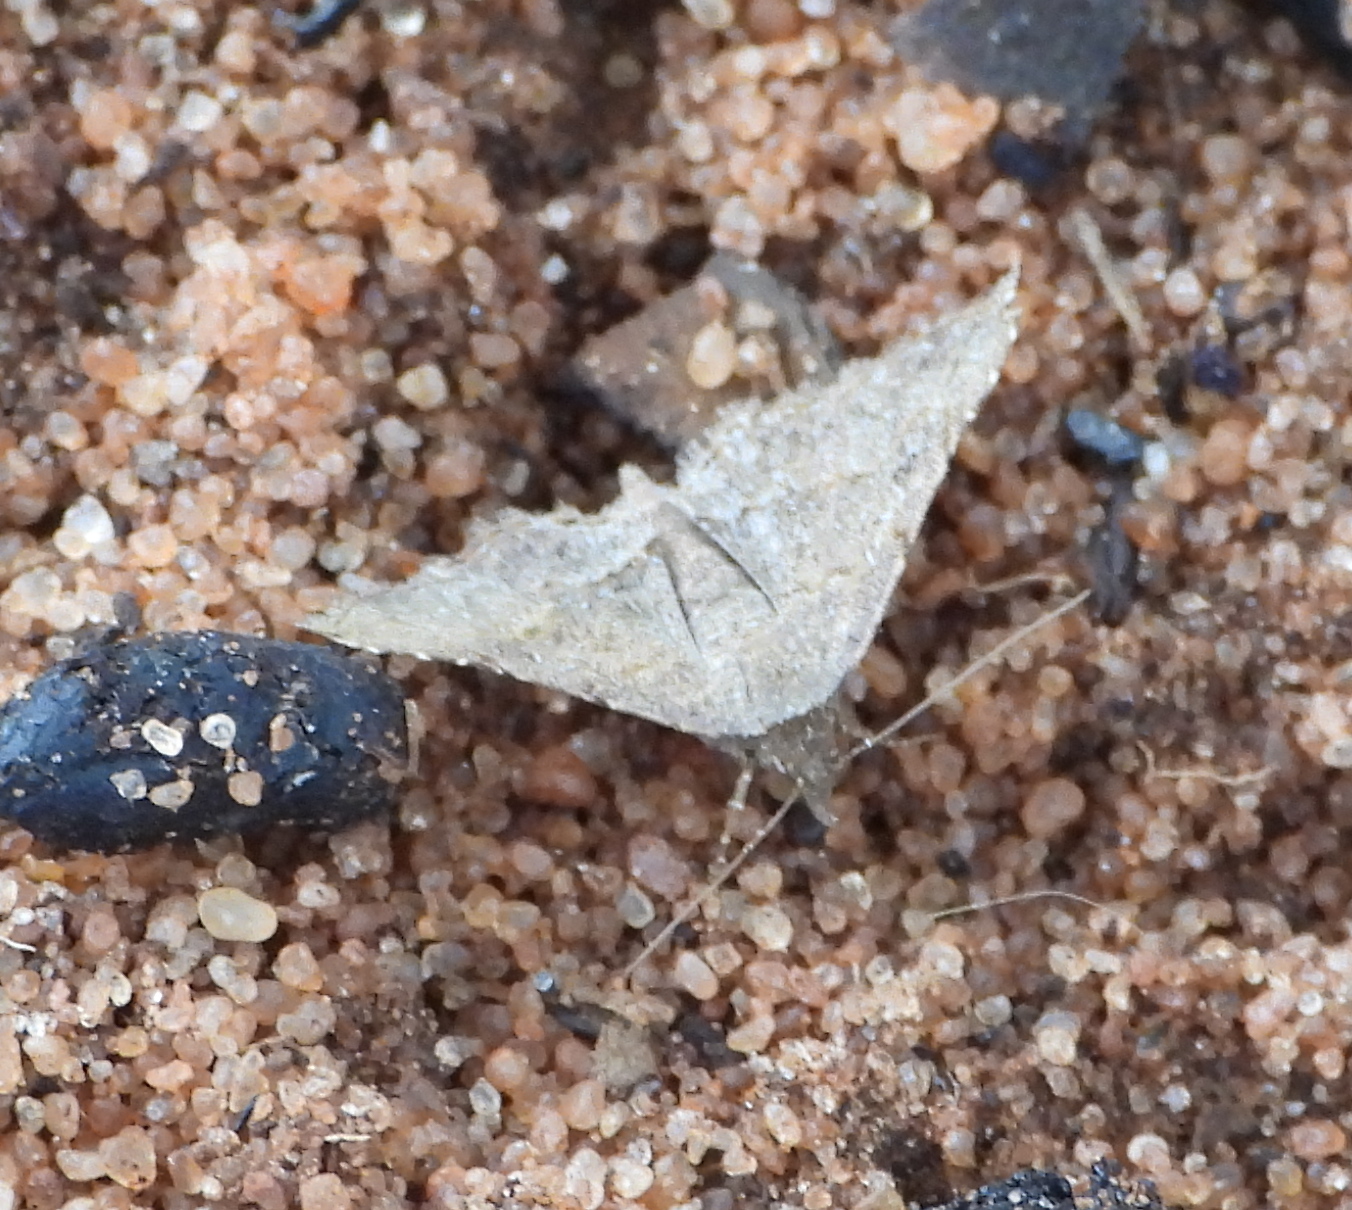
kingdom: Animalia
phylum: Arthropoda
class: Insecta
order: Lepidoptera
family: Erebidae
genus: Rhesala
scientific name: Rhesala moestalis
